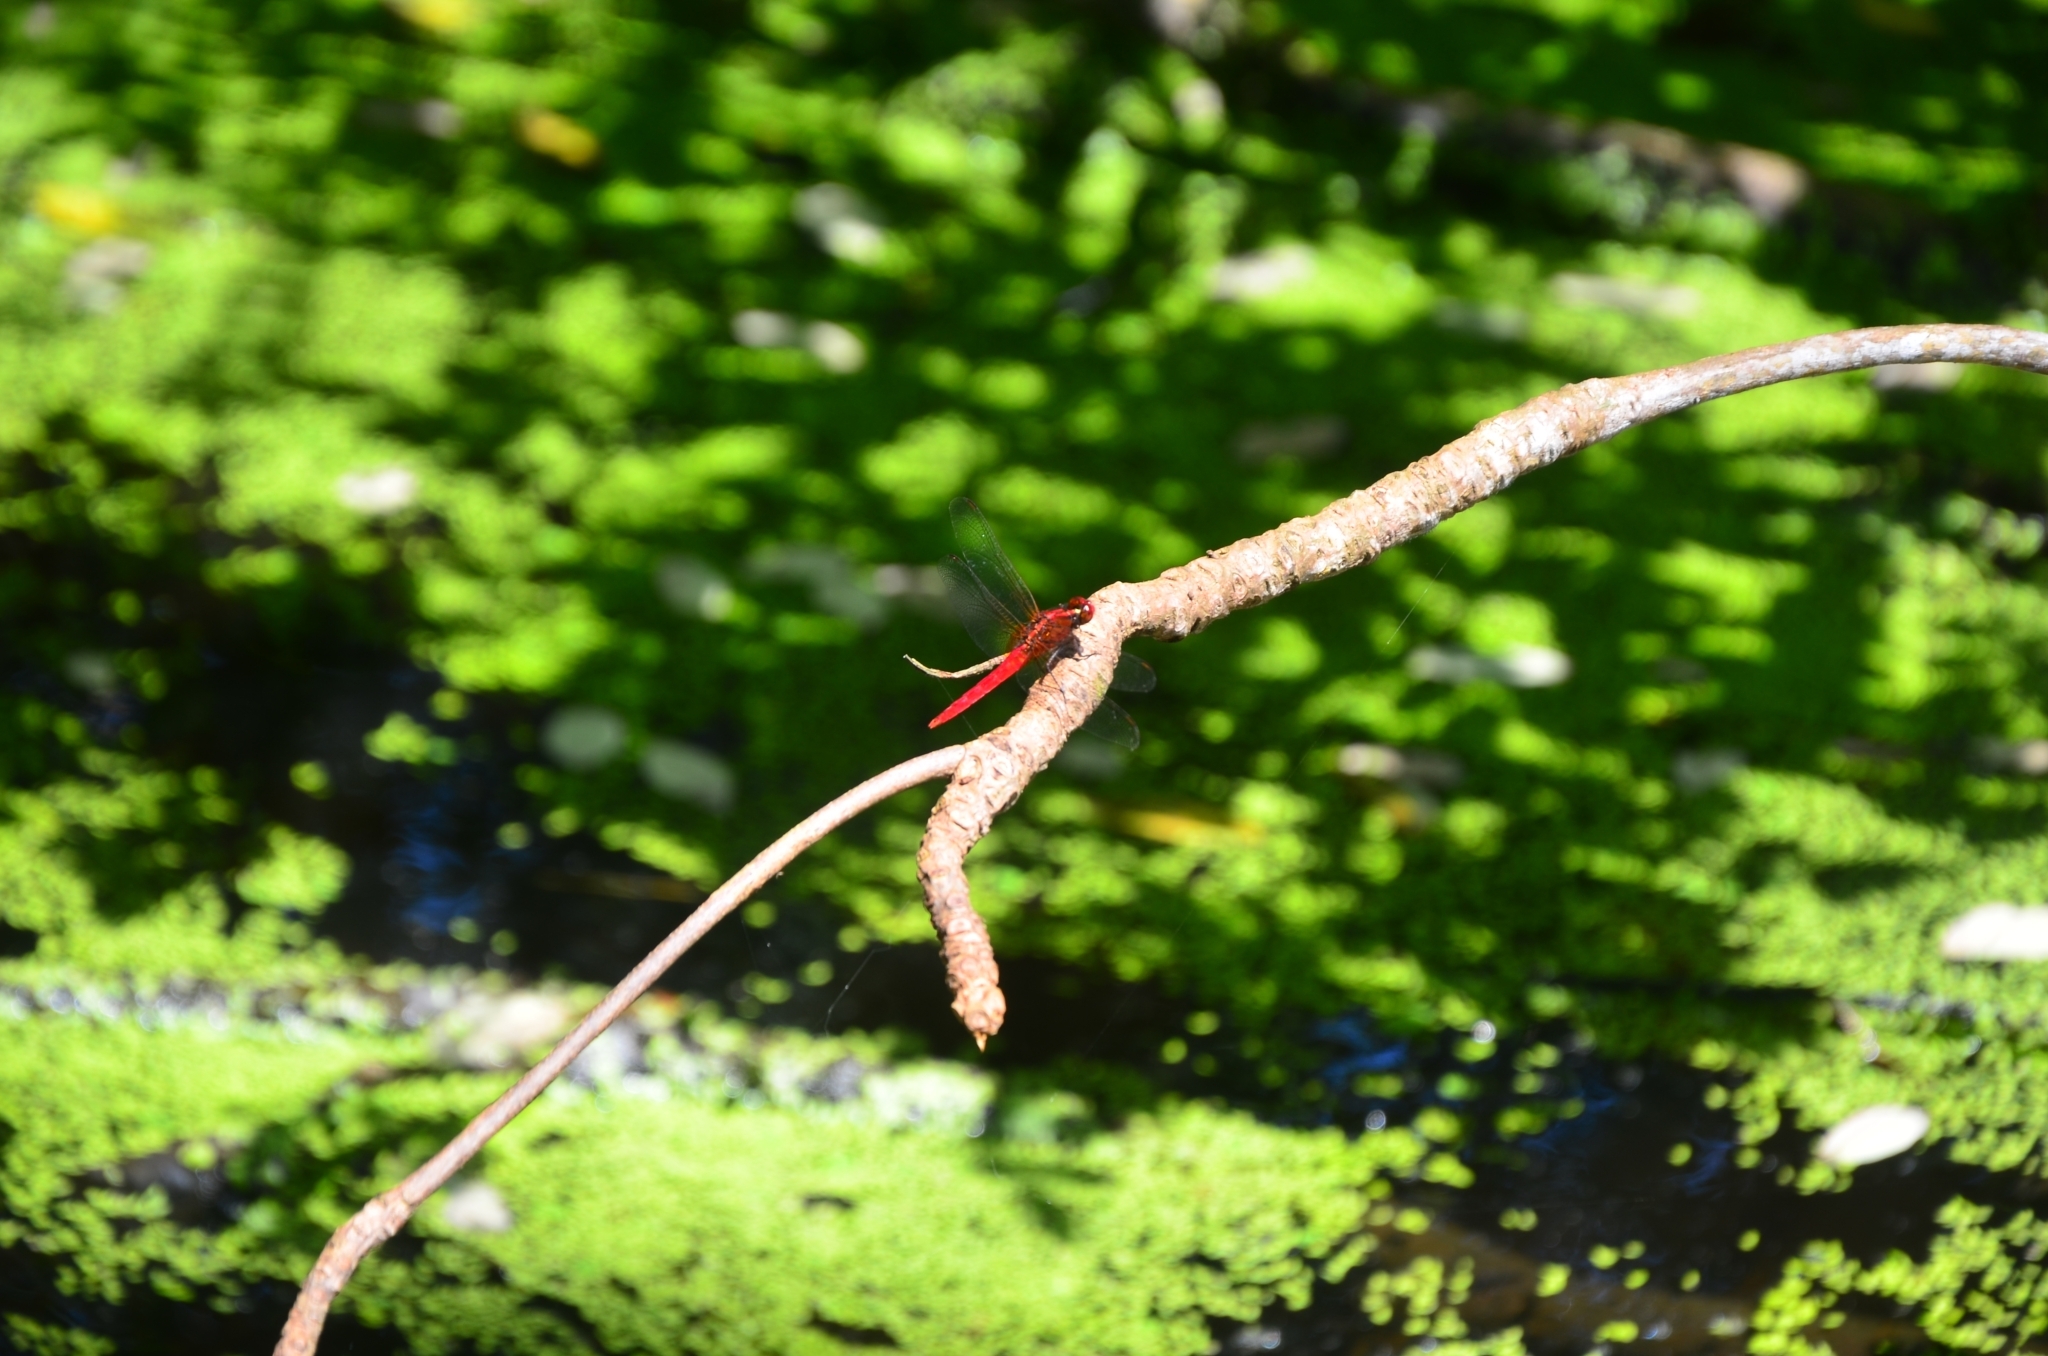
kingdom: Animalia
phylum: Arthropoda
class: Insecta
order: Odonata
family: Libellulidae
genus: Rhodothemis
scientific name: Rhodothemis rufa
